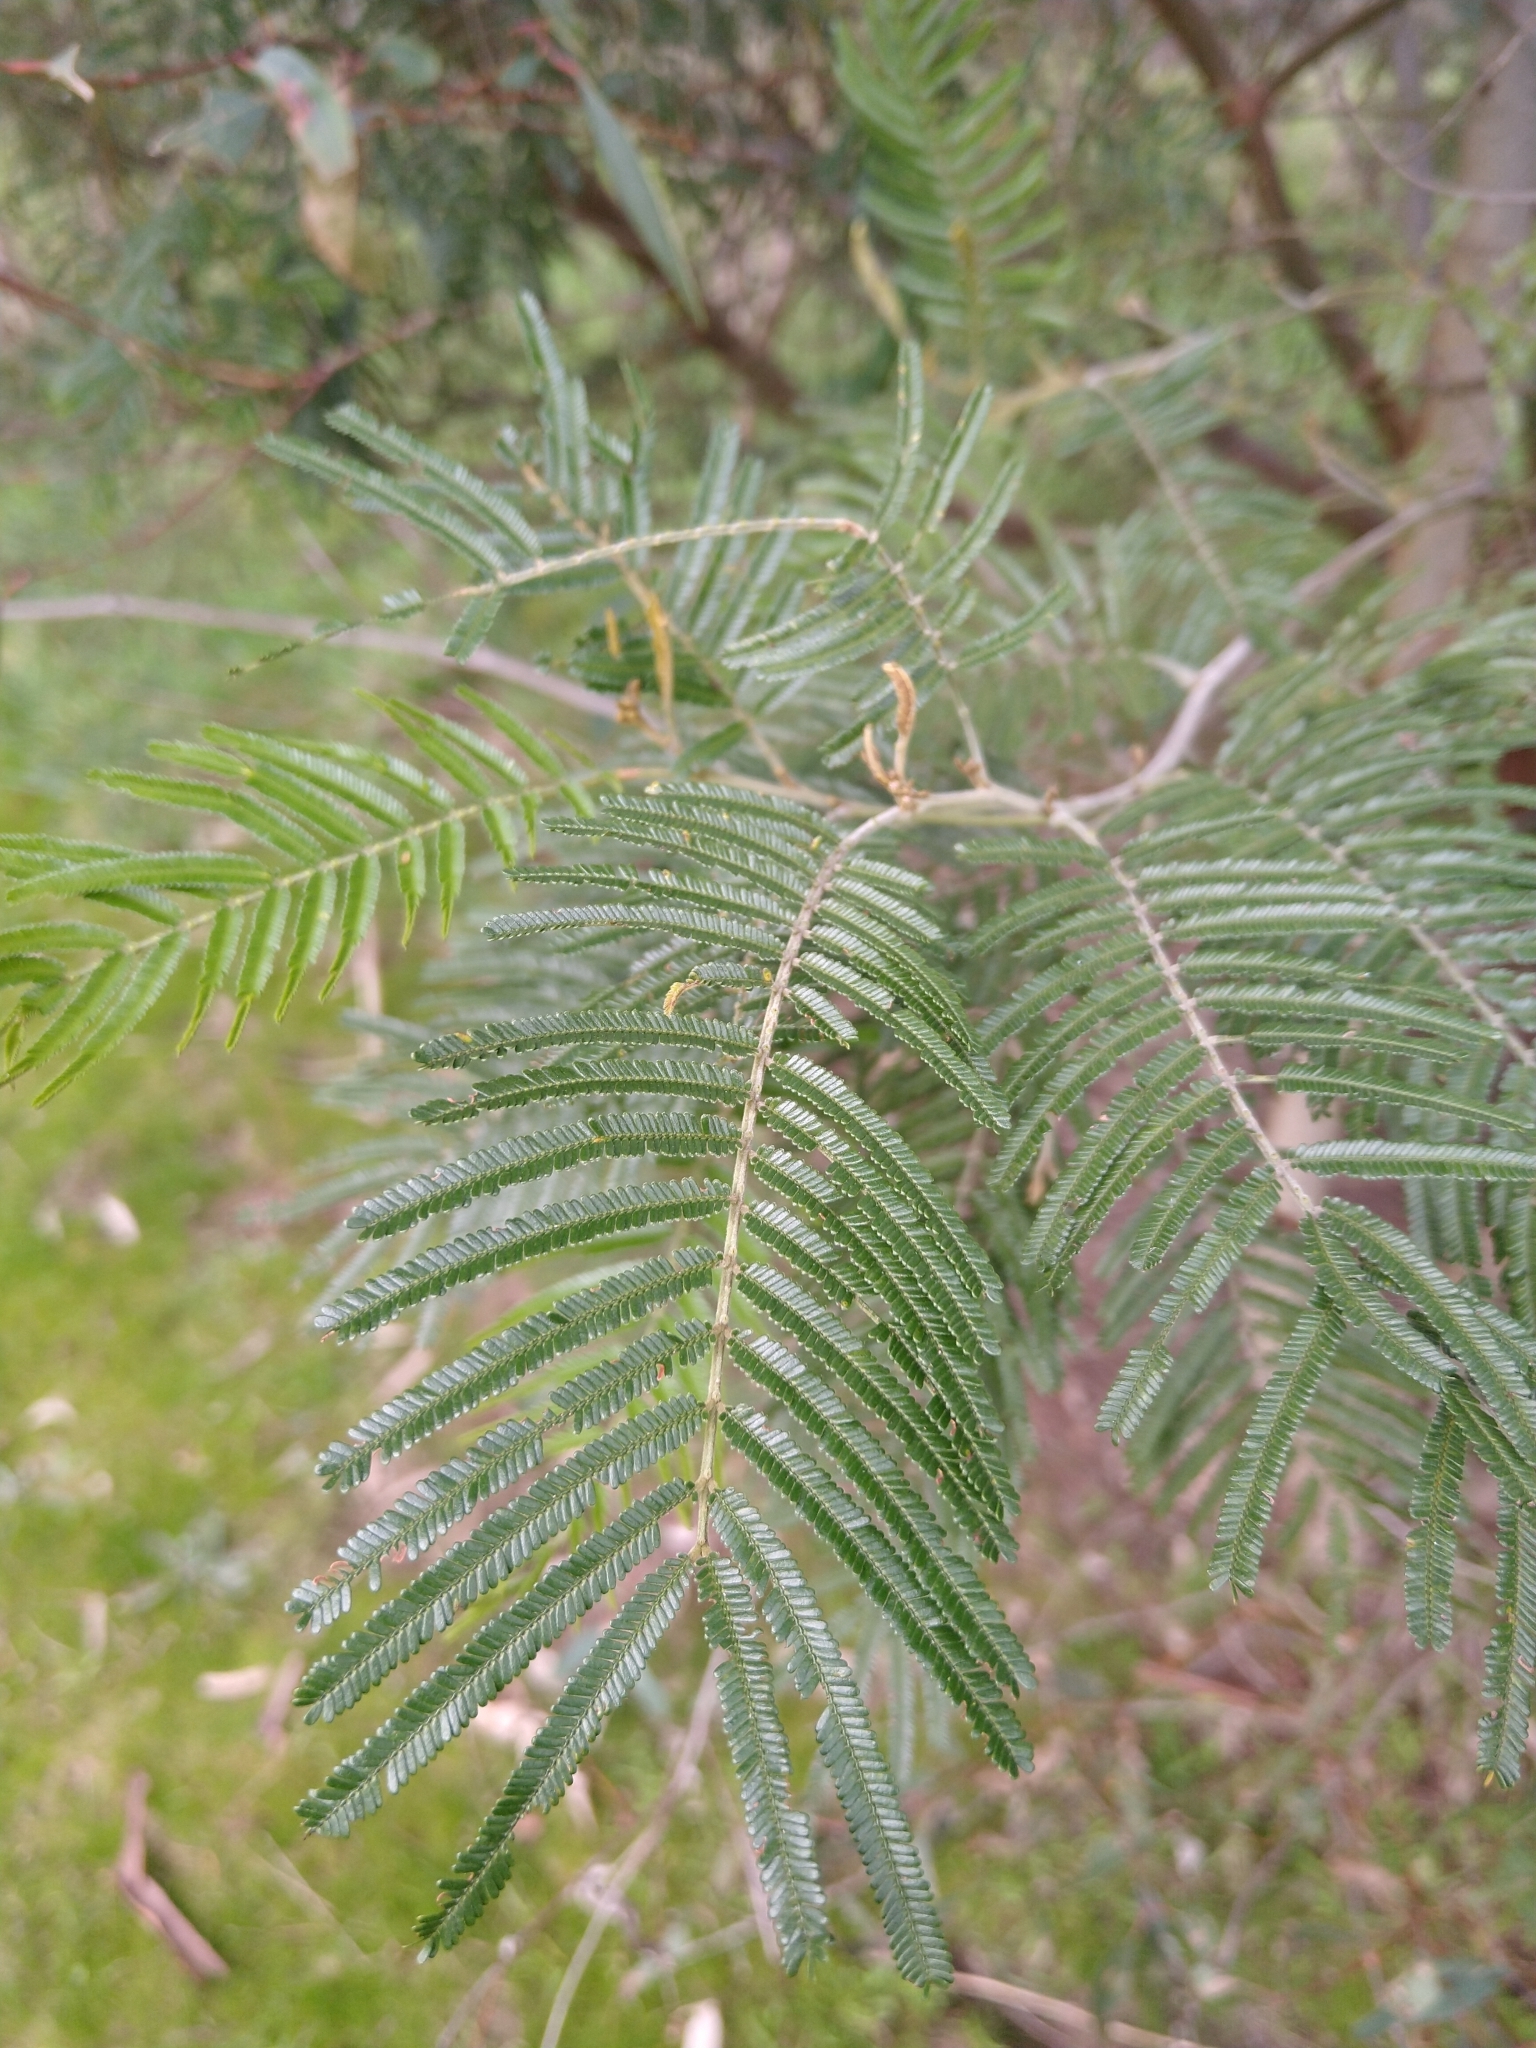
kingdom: Plantae
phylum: Tracheophyta
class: Magnoliopsida
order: Fabales
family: Fabaceae
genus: Acacia
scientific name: Acacia mearnsii
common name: Black wattle
